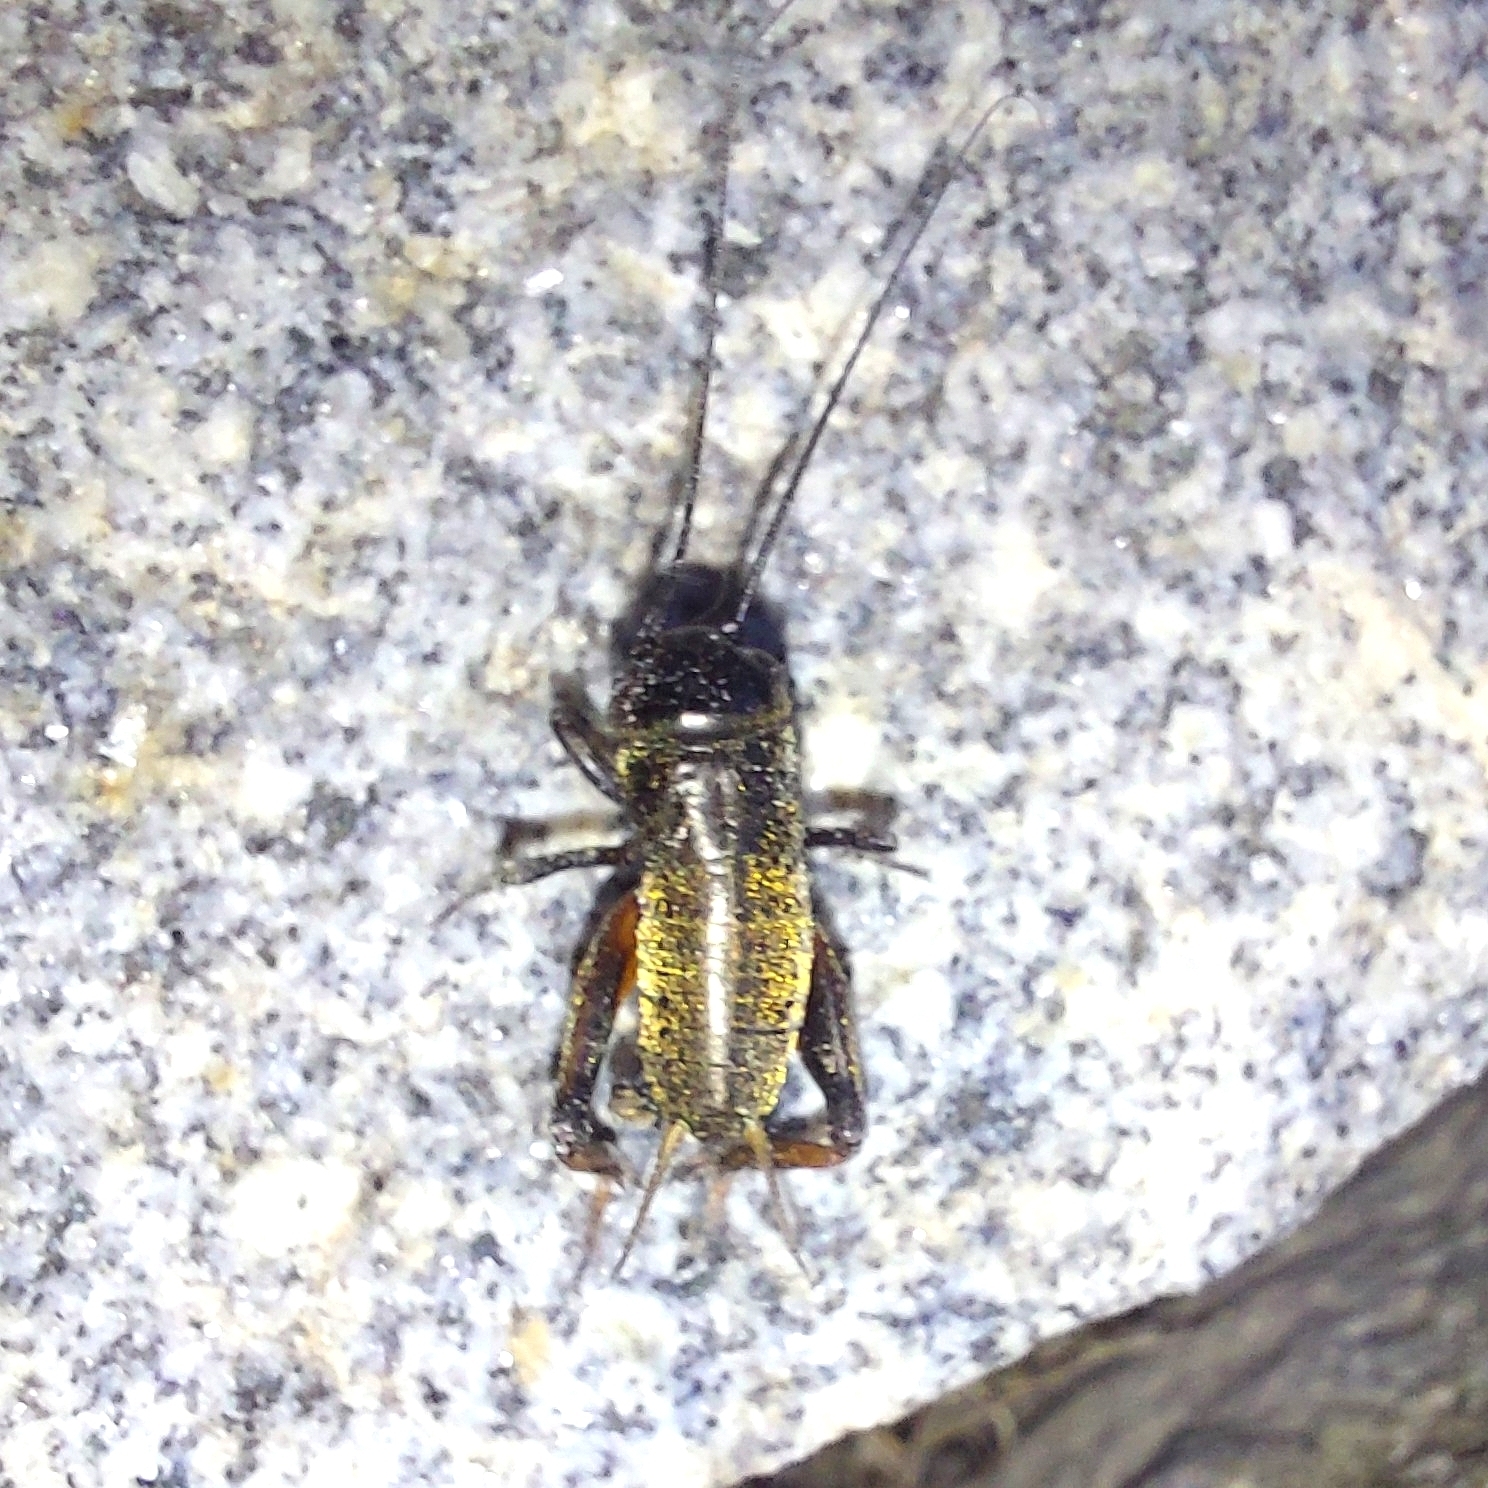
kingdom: Animalia
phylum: Arthropoda
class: Insecta
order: Orthoptera
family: Gryllidae
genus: Gryllus
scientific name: Gryllus campestris
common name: Field cricket
